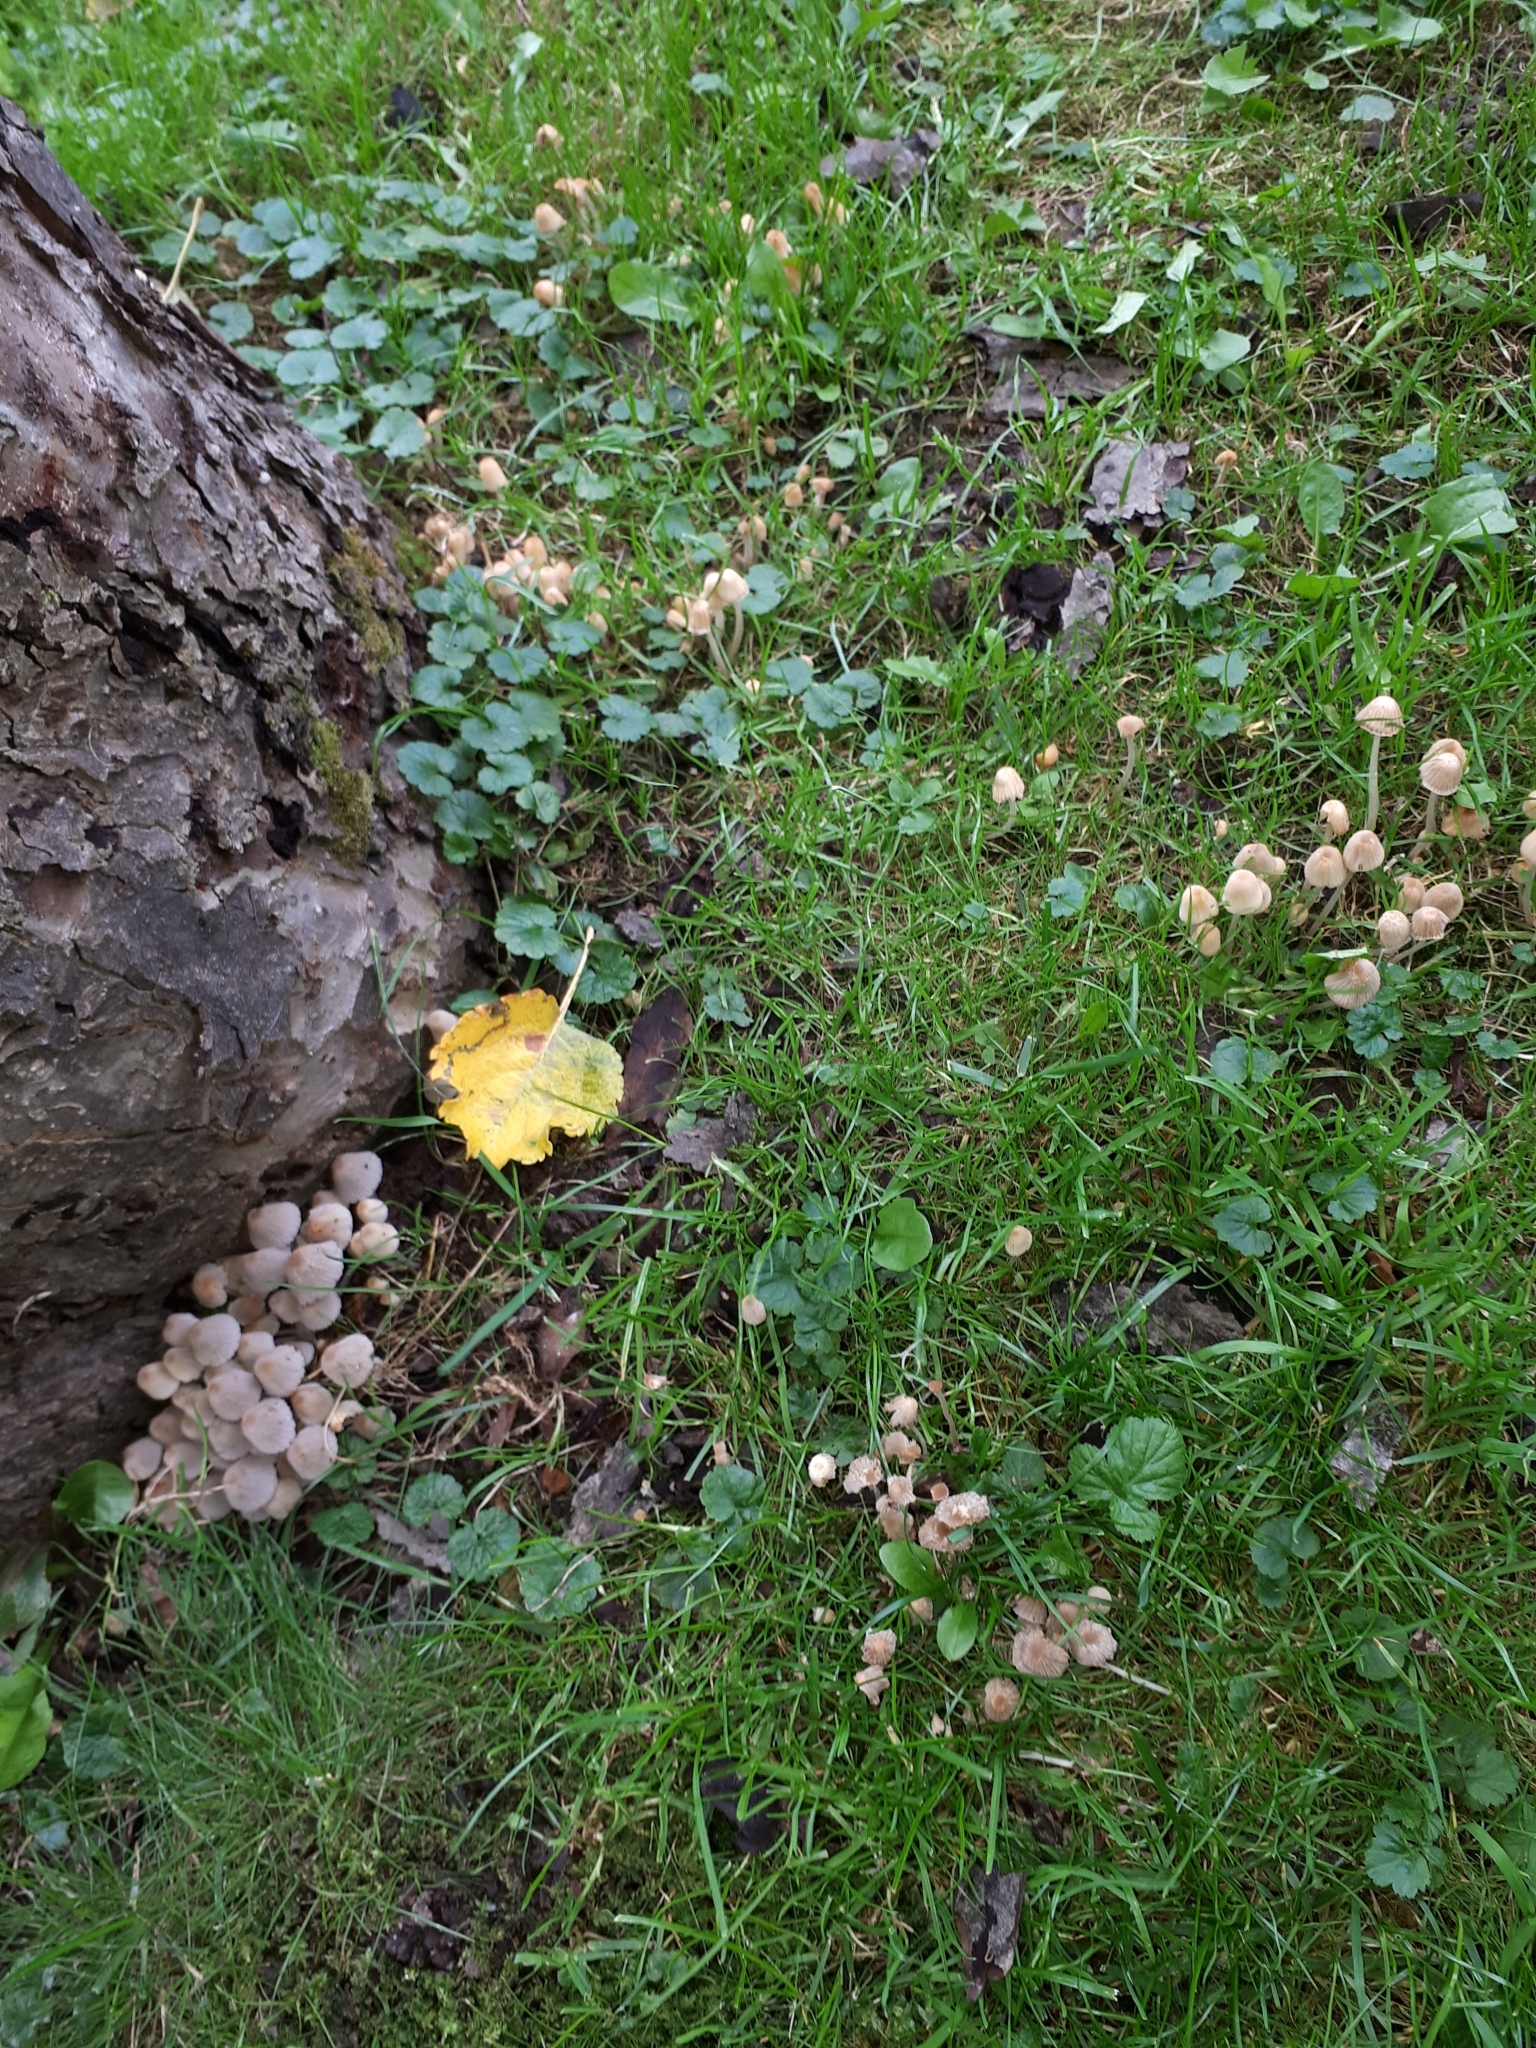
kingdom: Fungi
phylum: Basidiomycota
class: Agaricomycetes
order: Agaricales
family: Psathyrellaceae
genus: Coprinellus
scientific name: Coprinellus disseminatus
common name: Fairies' bonnets
